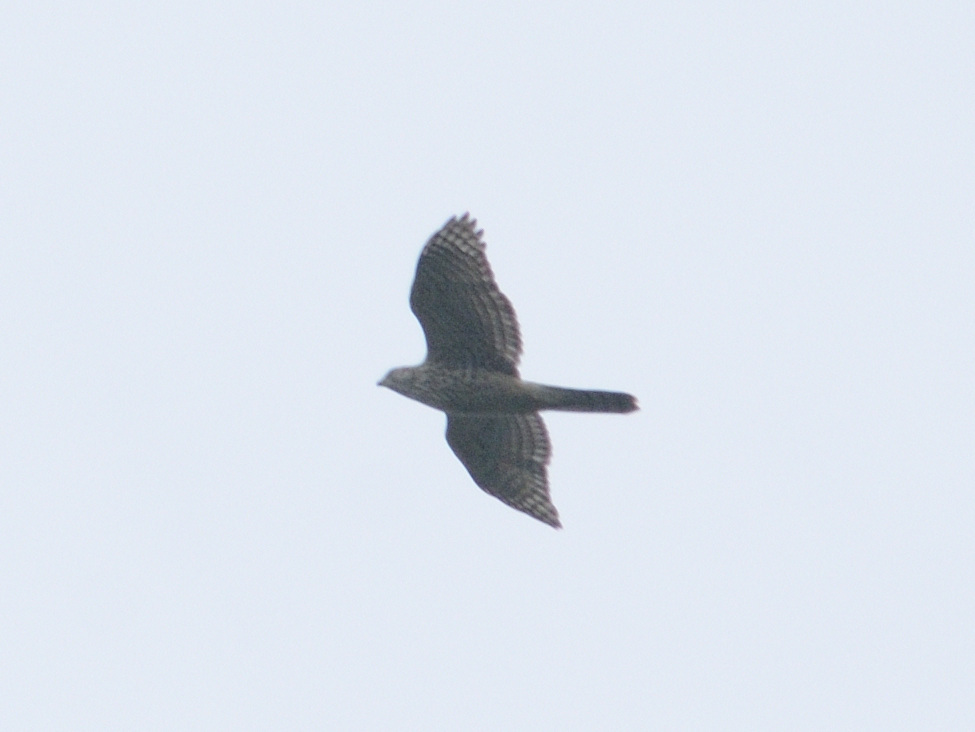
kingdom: Animalia
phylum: Chordata
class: Aves
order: Accipitriformes
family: Accipitridae
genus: Accipiter
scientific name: Accipiter gentilis
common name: Northern goshawk
